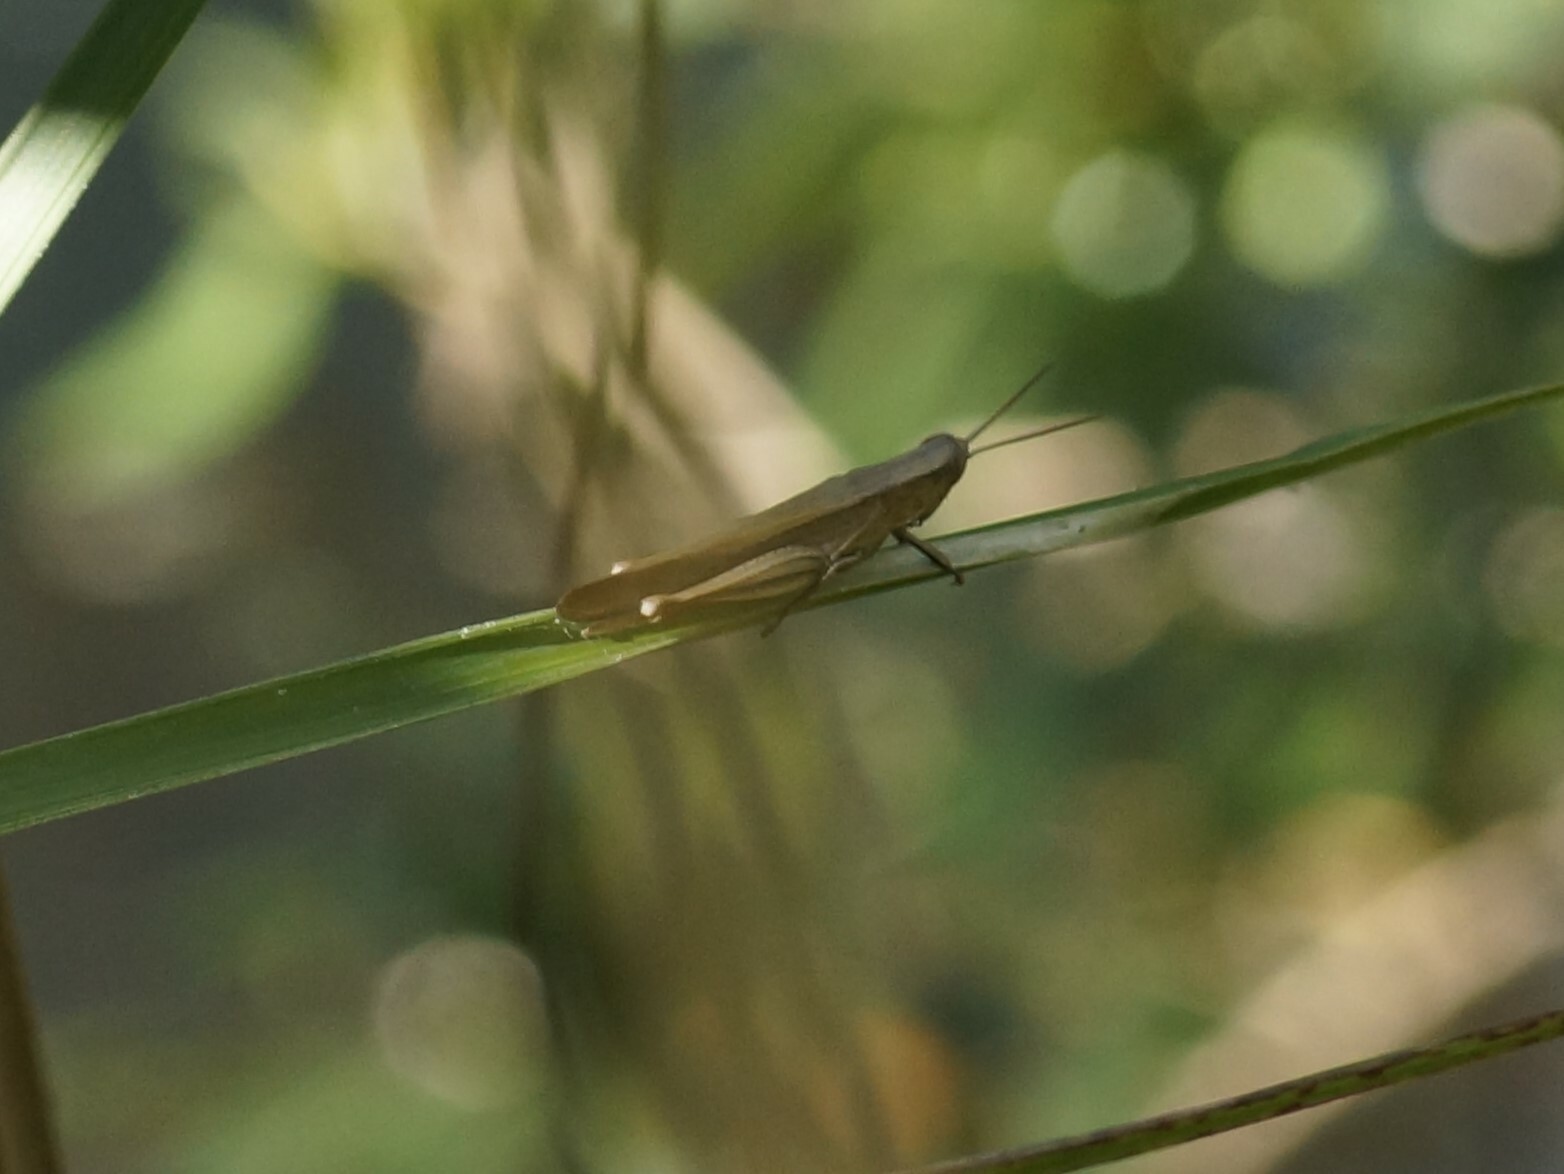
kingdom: Animalia
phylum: Arthropoda
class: Insecta
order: Orthoptera
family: Acrididae
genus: Stenocatantops
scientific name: Stenocatantops vitripennis
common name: Light-brown sharptail
